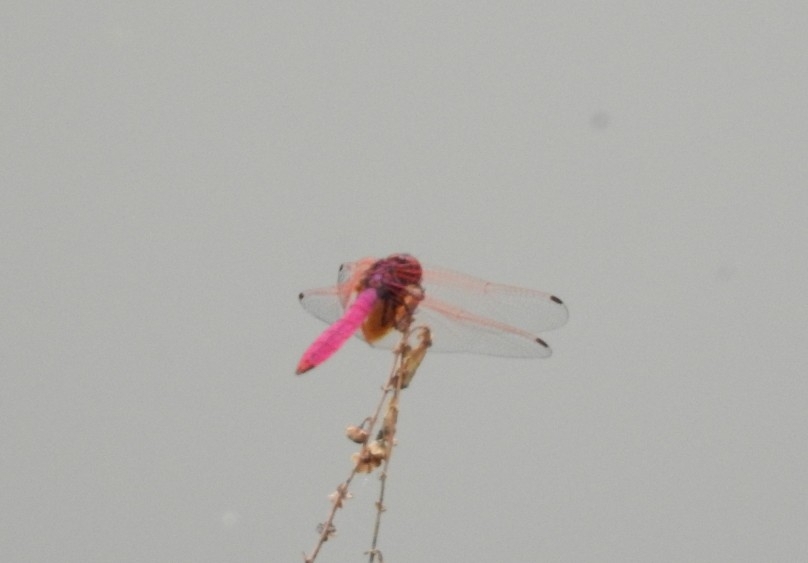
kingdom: Animalia
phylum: Arthropoda
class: Insecta
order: Odonata
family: Libellulidae
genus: Trithemis
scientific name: Trithemis aurora
